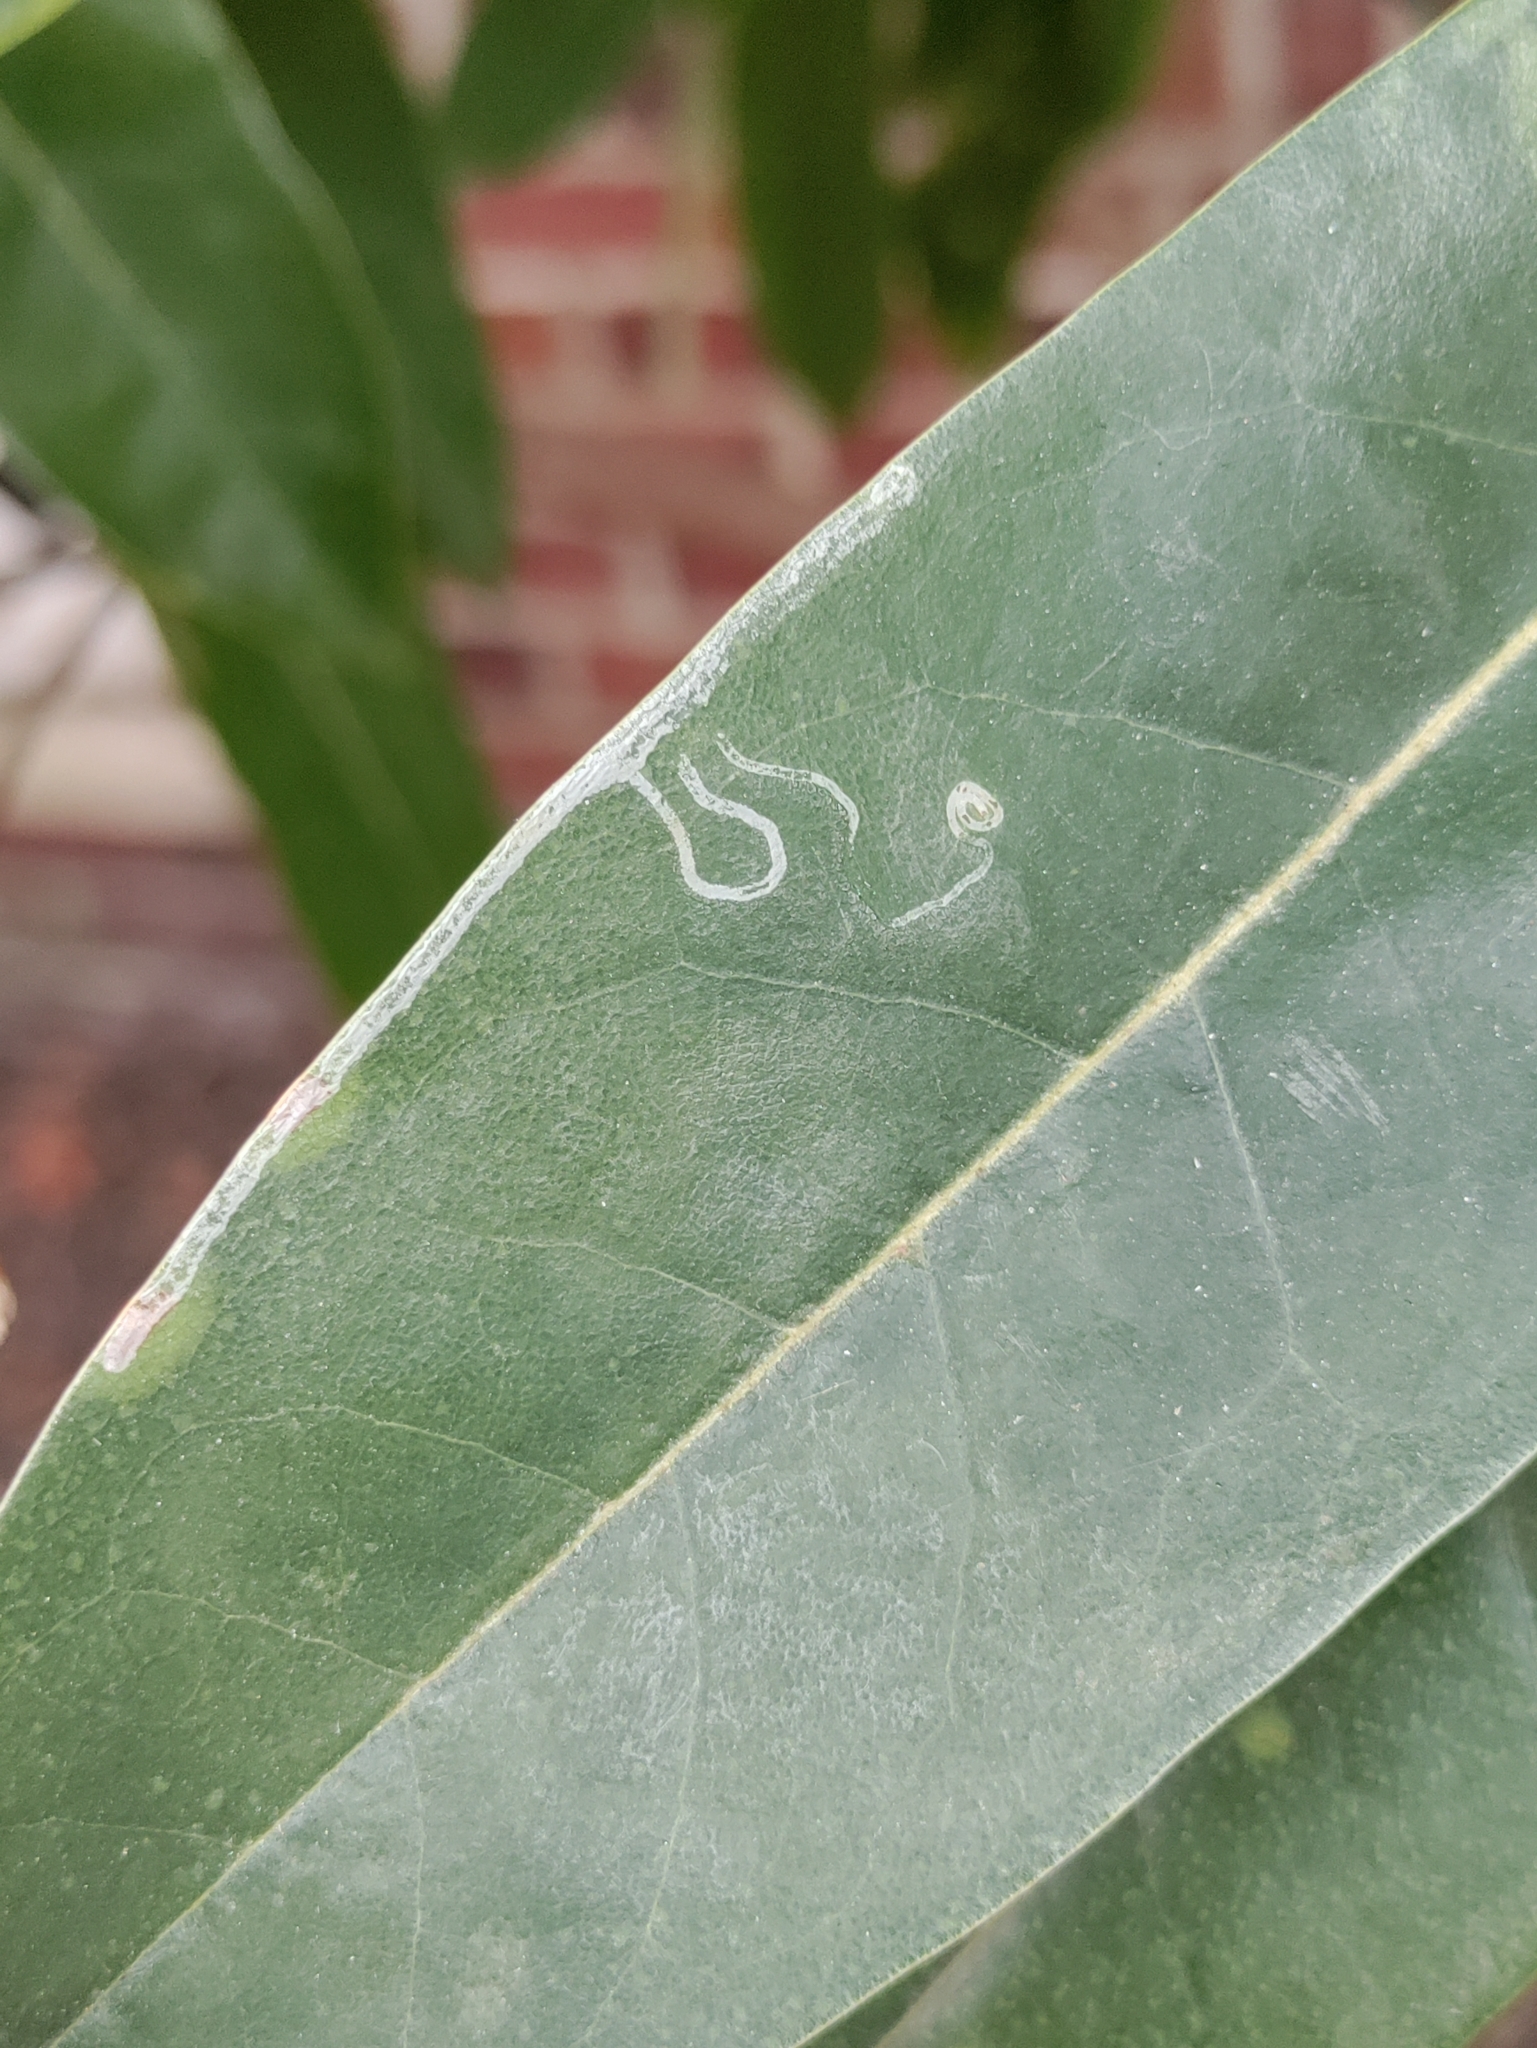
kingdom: Animalia
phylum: Arthropoda
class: Insecta
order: Lepidoptera
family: Gracillariidae
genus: Phyllocnistis
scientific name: Phyllocnistis liriodendronella
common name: Tulip tree leaf miner
